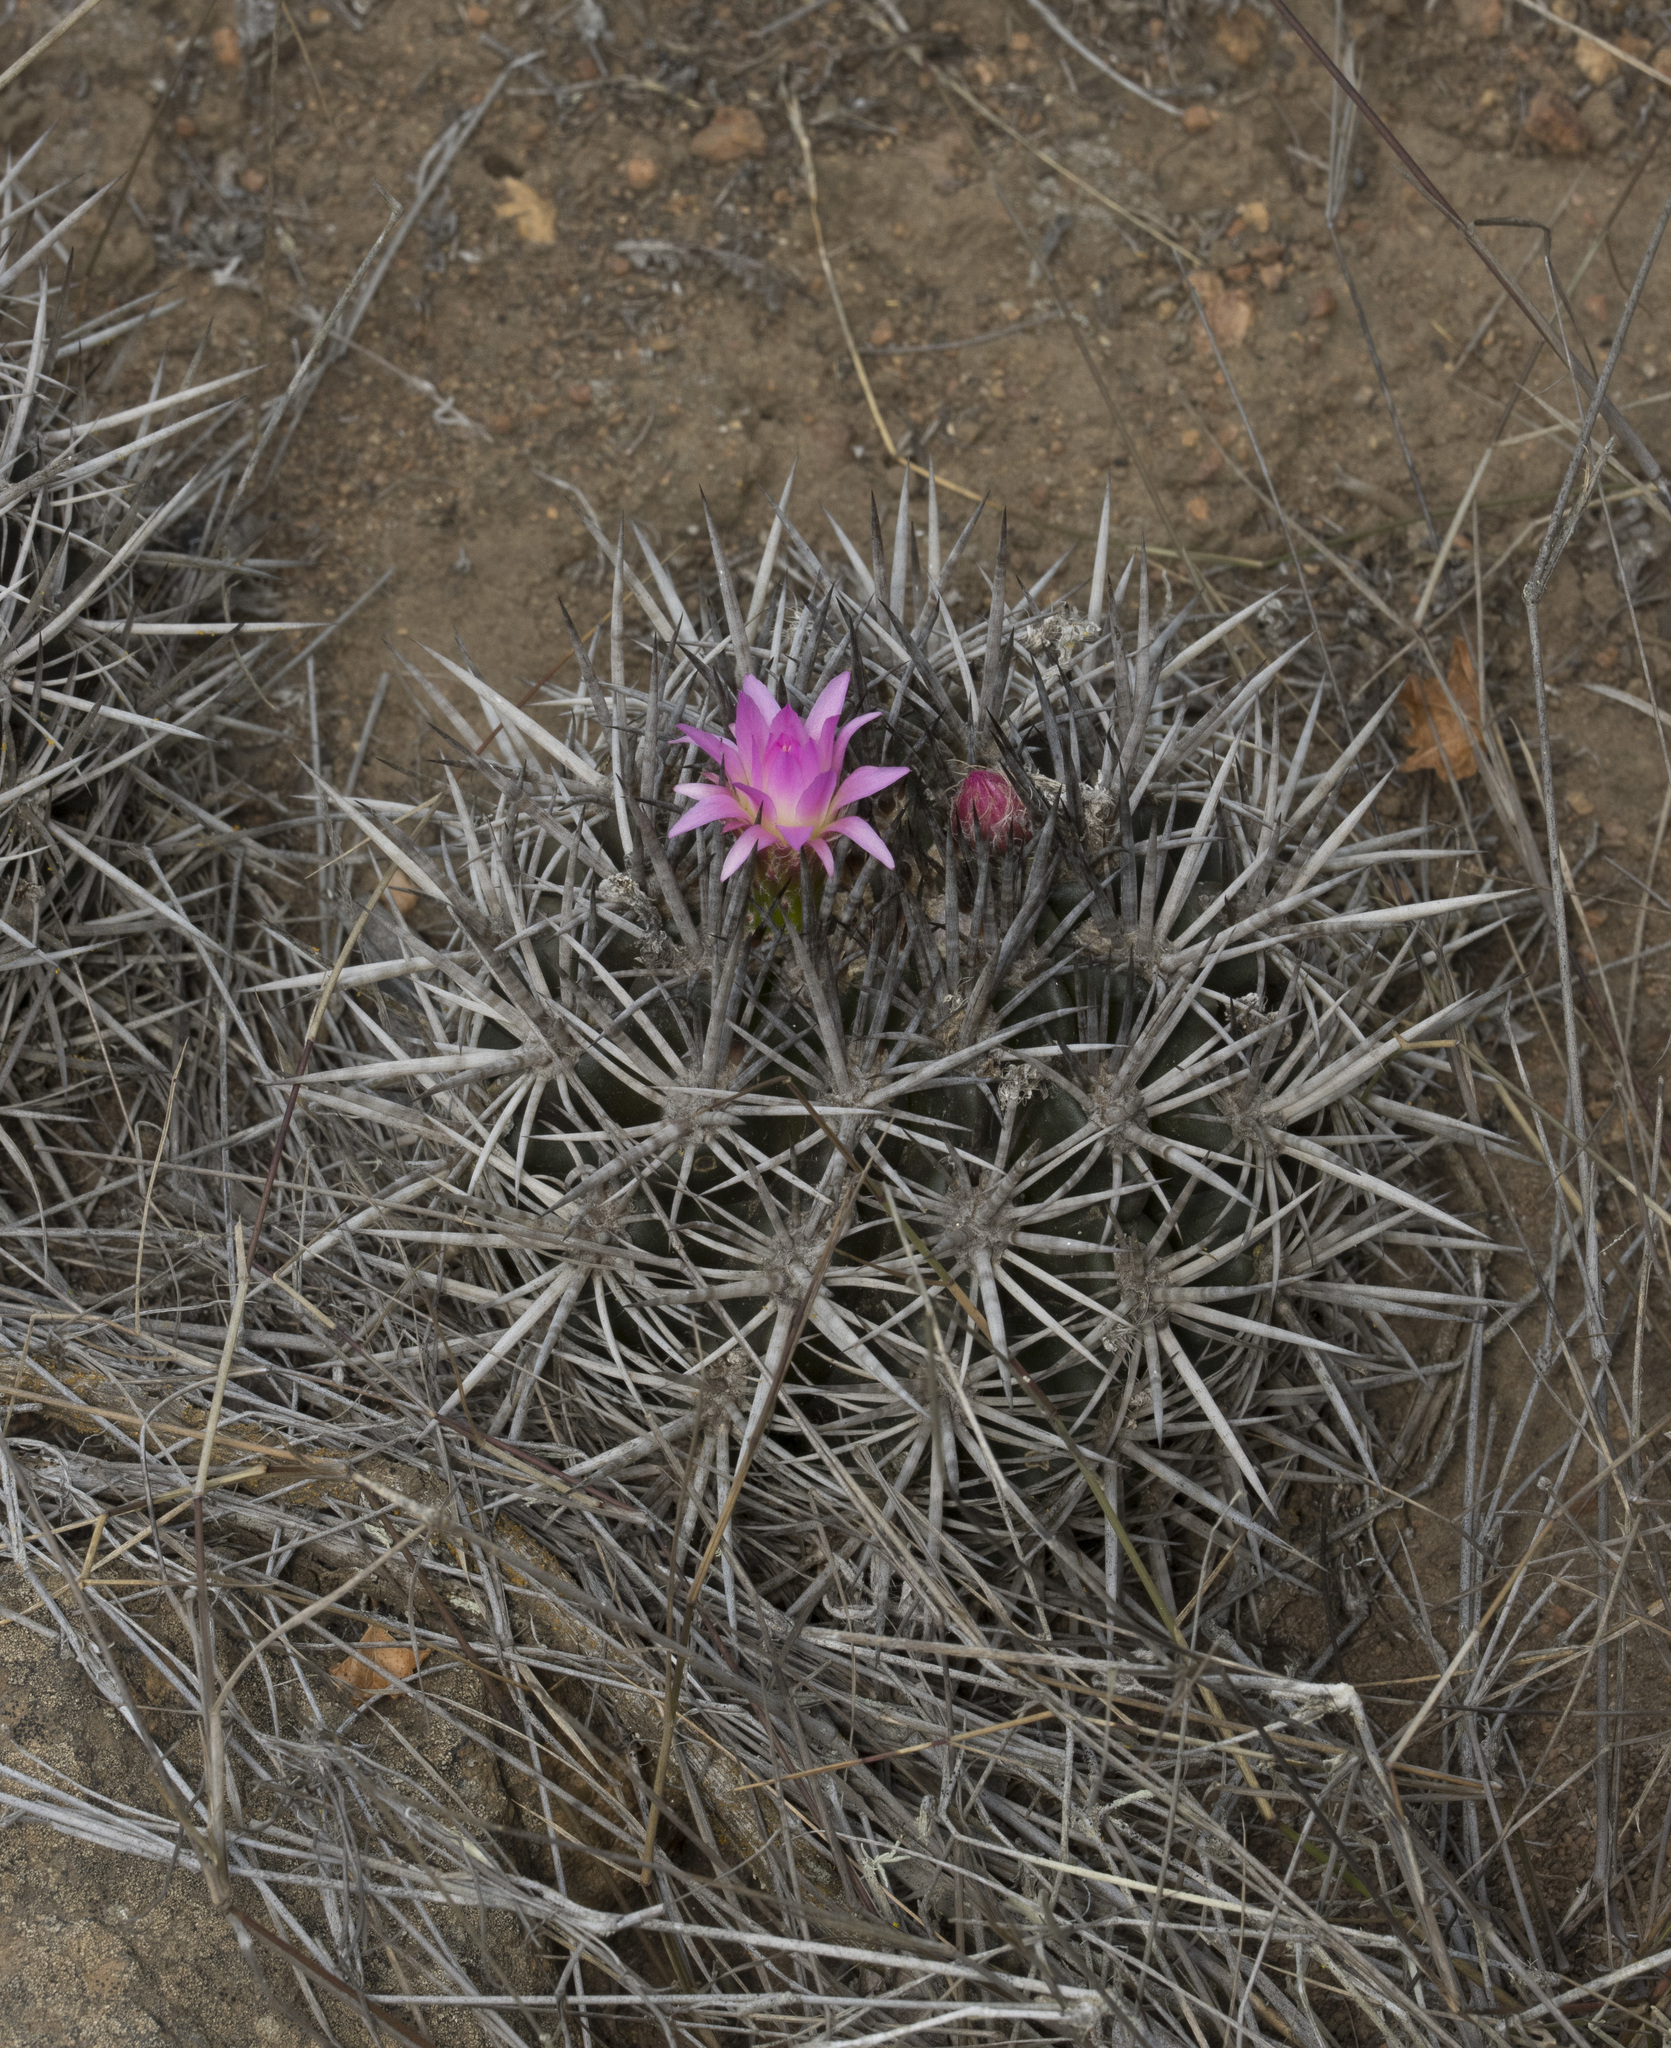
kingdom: Plantae
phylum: Tracheophyta
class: Magnoliopsida
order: Caryophyllales
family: Cactaceae
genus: Eriosyce
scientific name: Eriosyce nigrihorrida
